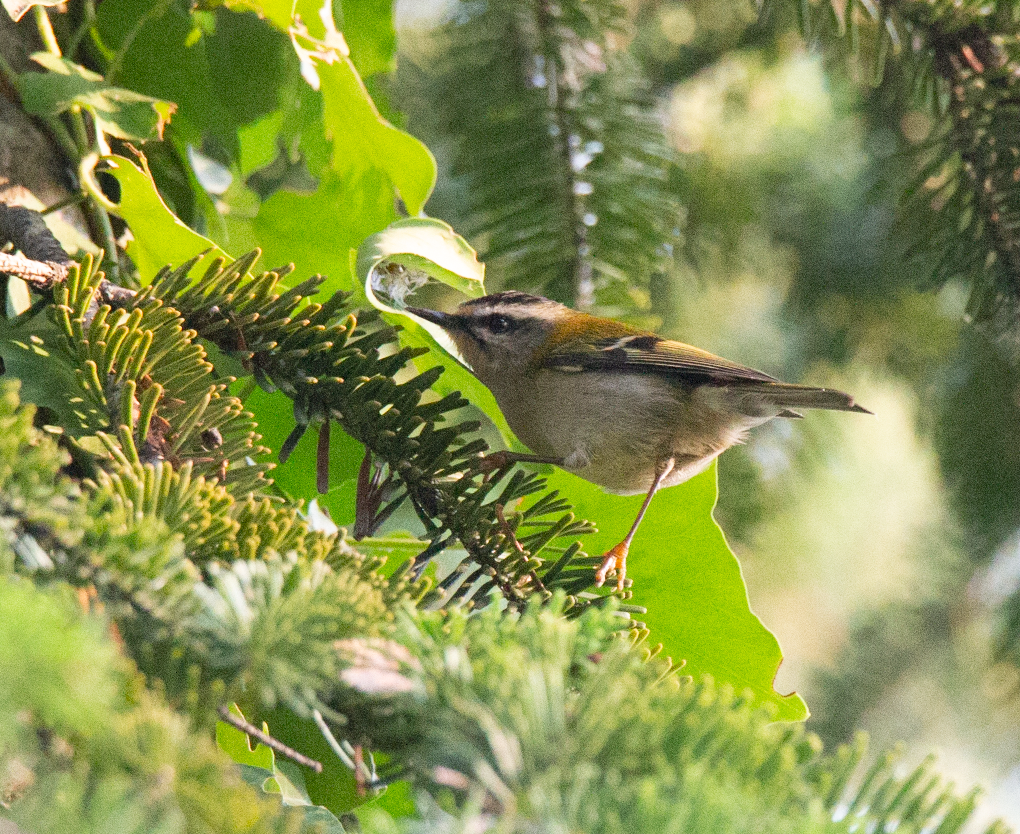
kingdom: Animalia
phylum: Chordata
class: Aves
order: Passeriformes
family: Regulidae
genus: Regulus
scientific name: Regulus ignicapilla
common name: Firecrest
